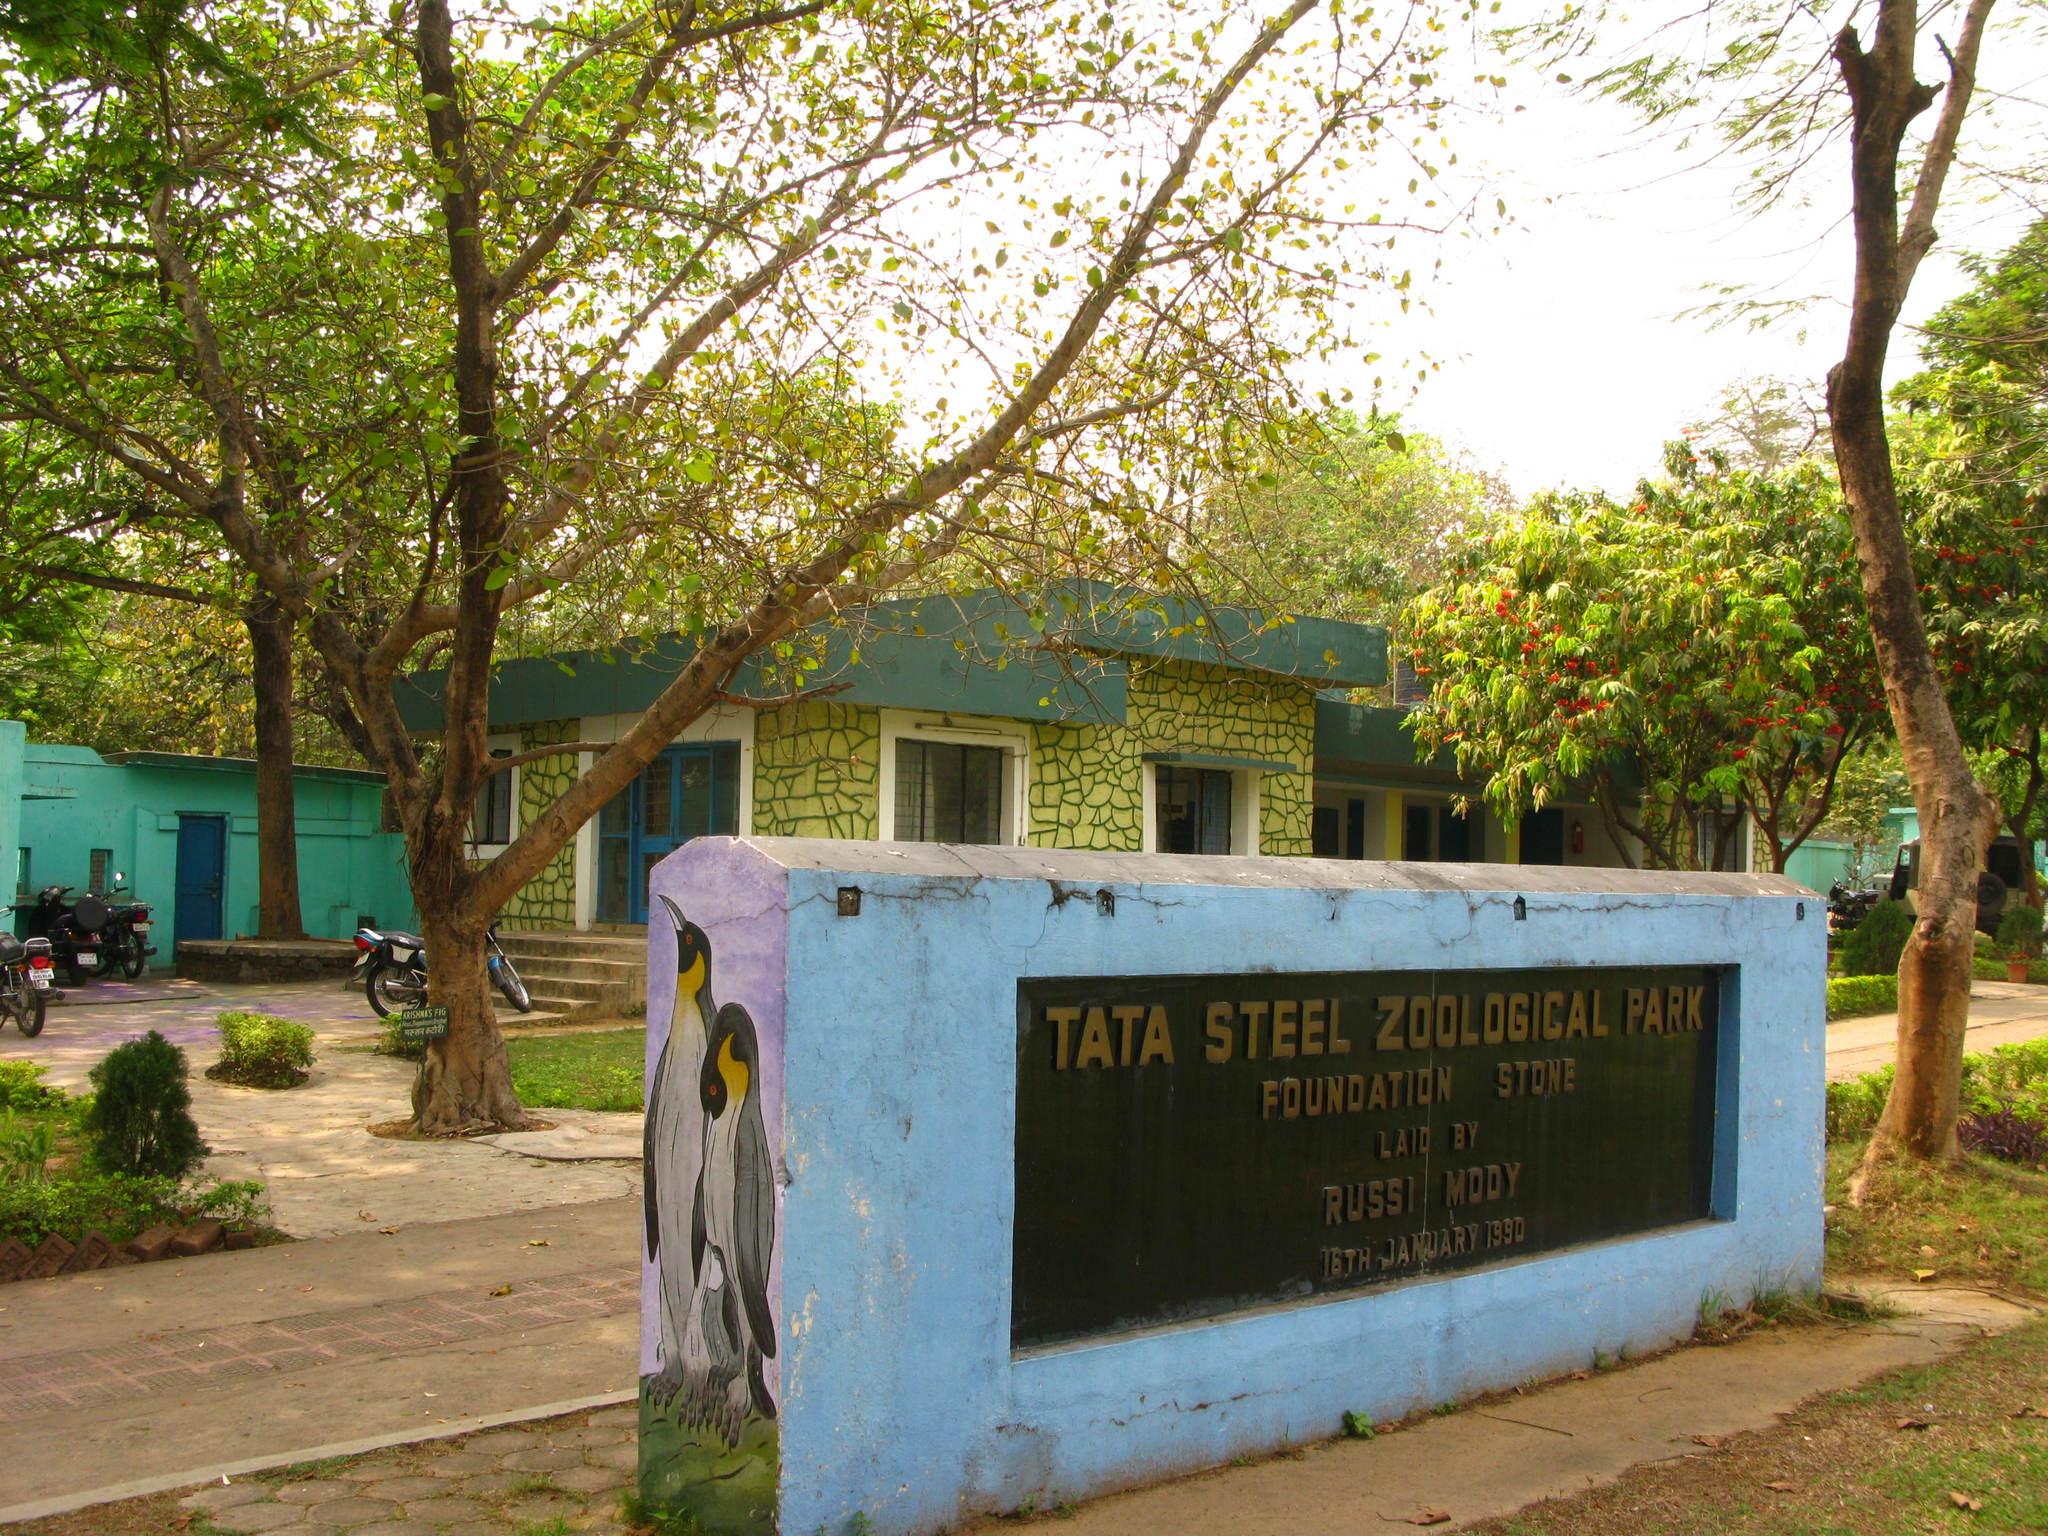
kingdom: Plantae
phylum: Tracheophyta
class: Magnoliopsida
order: Rosales
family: Moraceae
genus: Ficus
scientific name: Ficus krishnae
